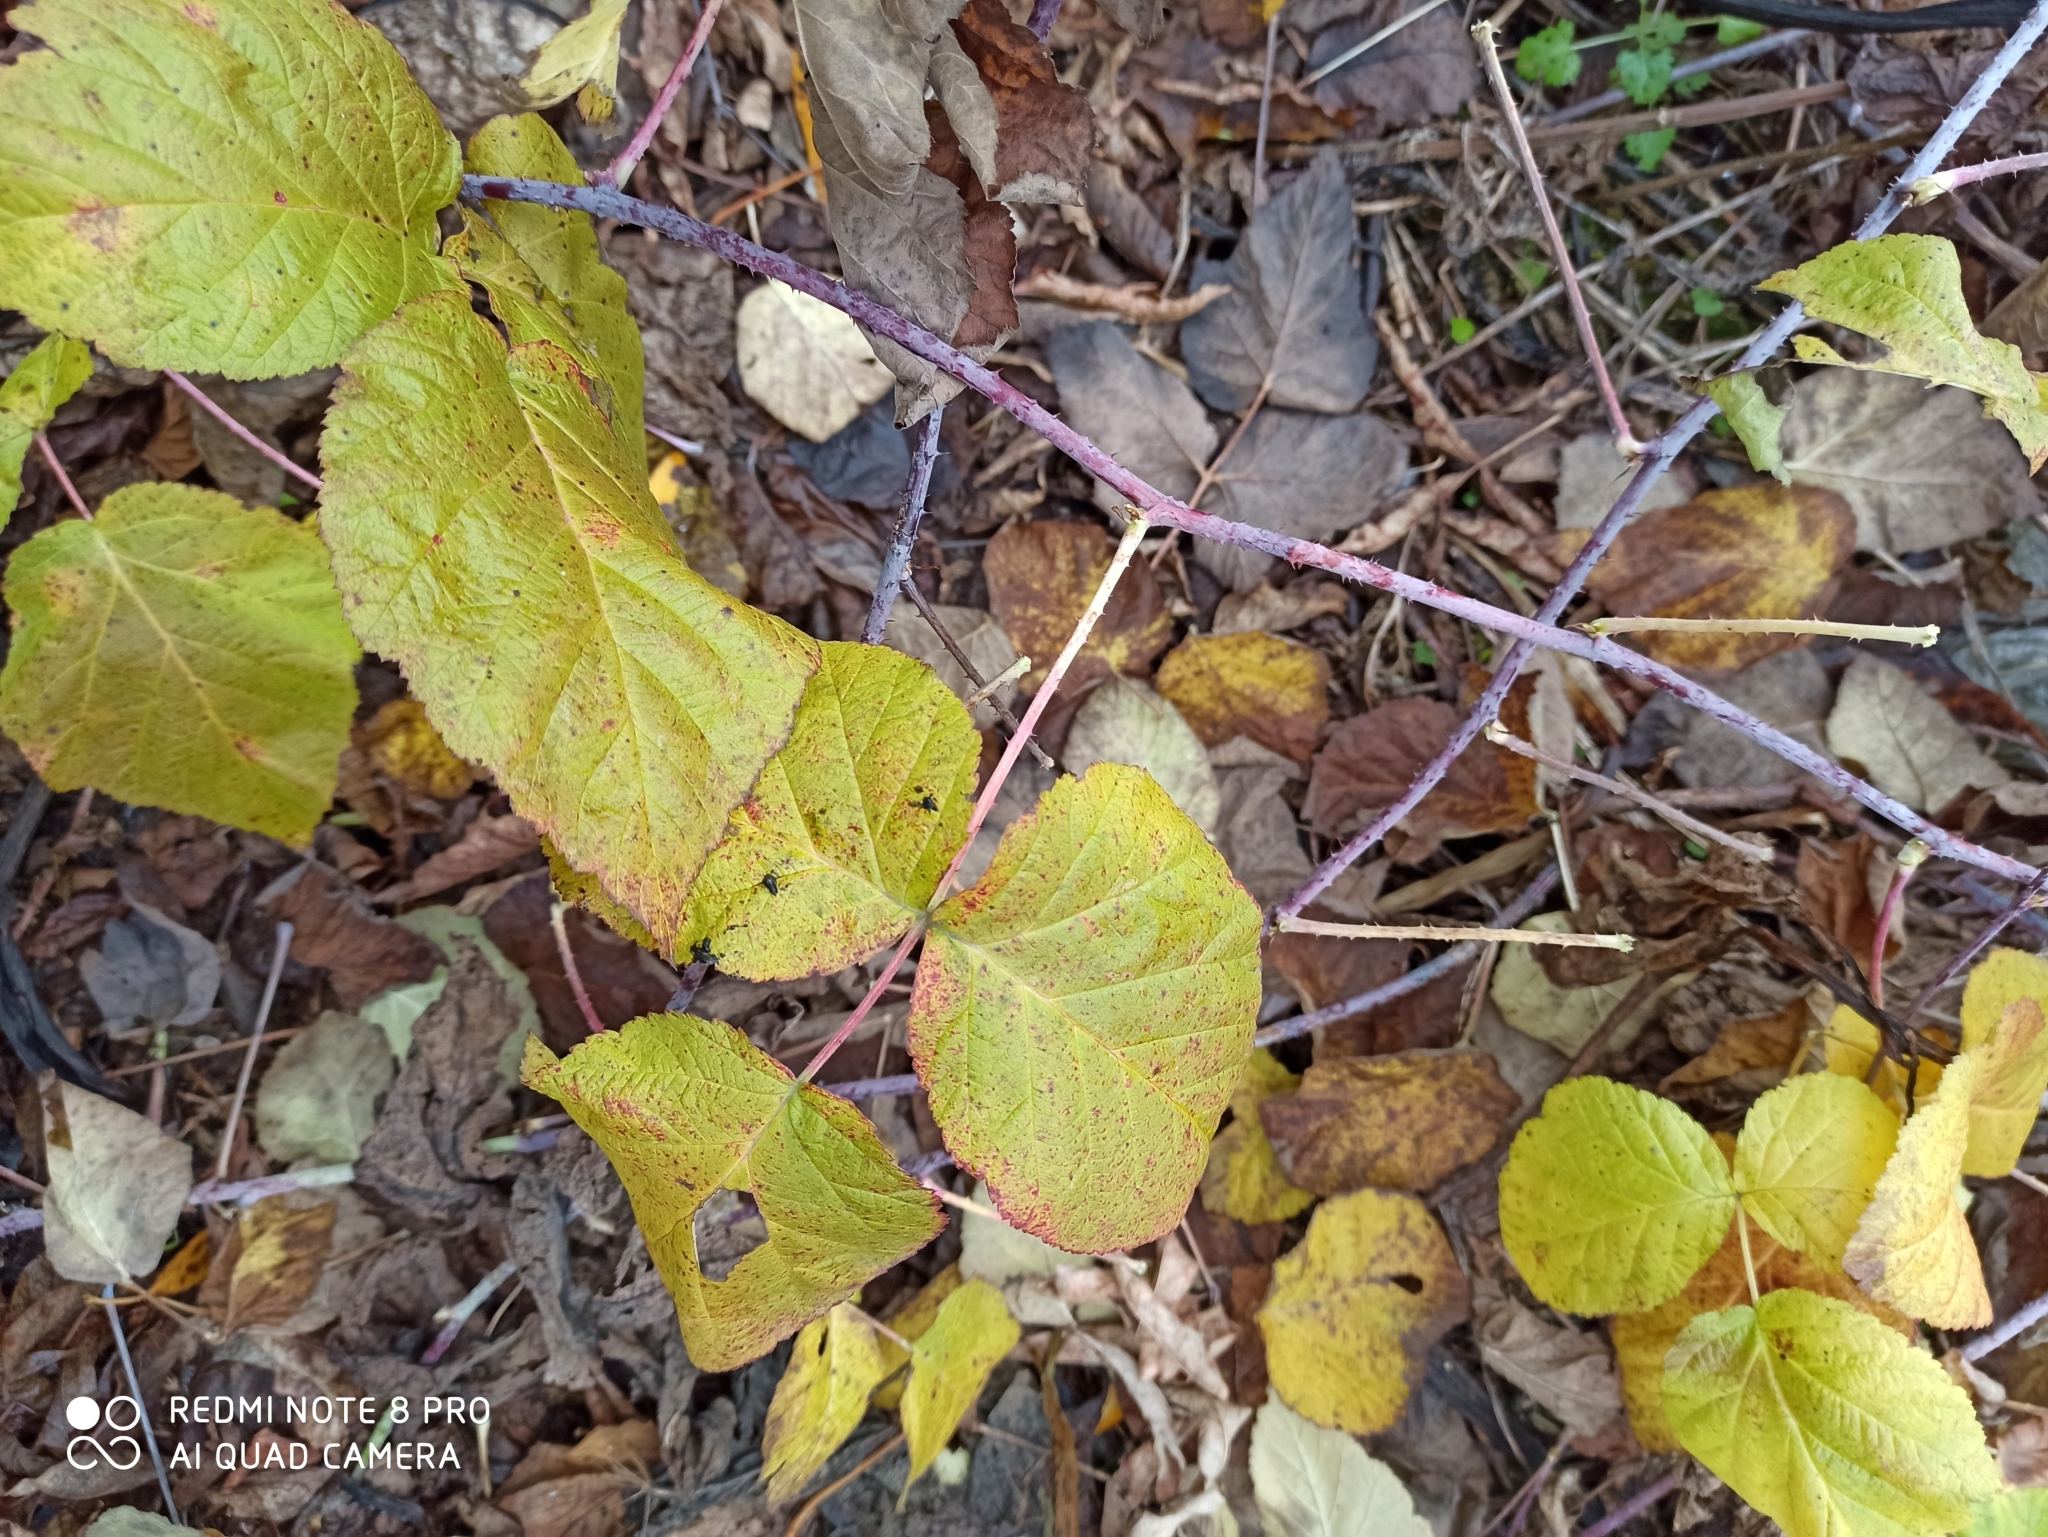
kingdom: Plantae
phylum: Tracheophyta
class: Magnoliopsida
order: Rosales
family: Rosaceae
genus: Rubus
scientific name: Rubus caesius
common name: Dewberry
